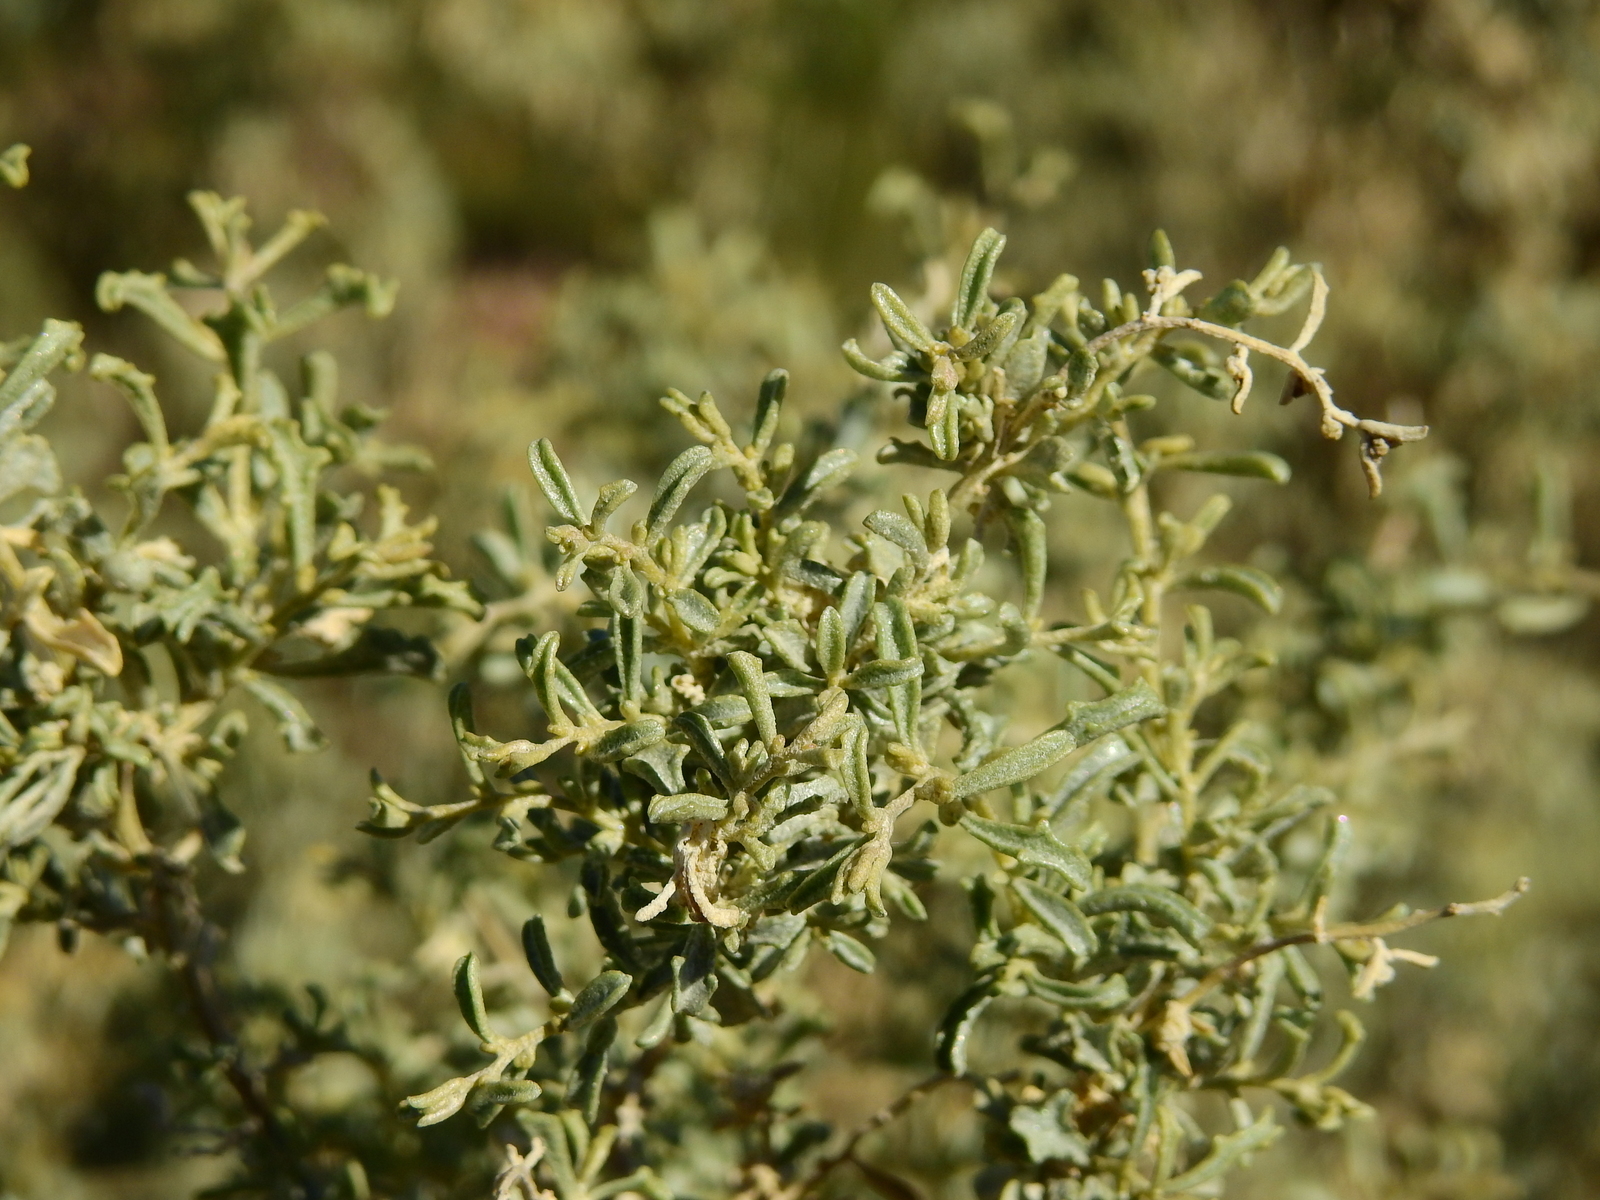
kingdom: Plantae
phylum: Tracheophyta
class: Magnoliopsida
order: Caryophyllales
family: Amaranthaceae
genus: Atriplex
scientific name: Atriplex lampa
